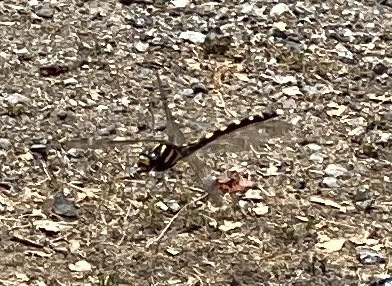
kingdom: Animalia
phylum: Arthropoda
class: Insecta
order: Odonata
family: Cordulegastridae
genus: Cordulegaster
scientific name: Cordulegaster dorsalis
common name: Pacific spiketail
